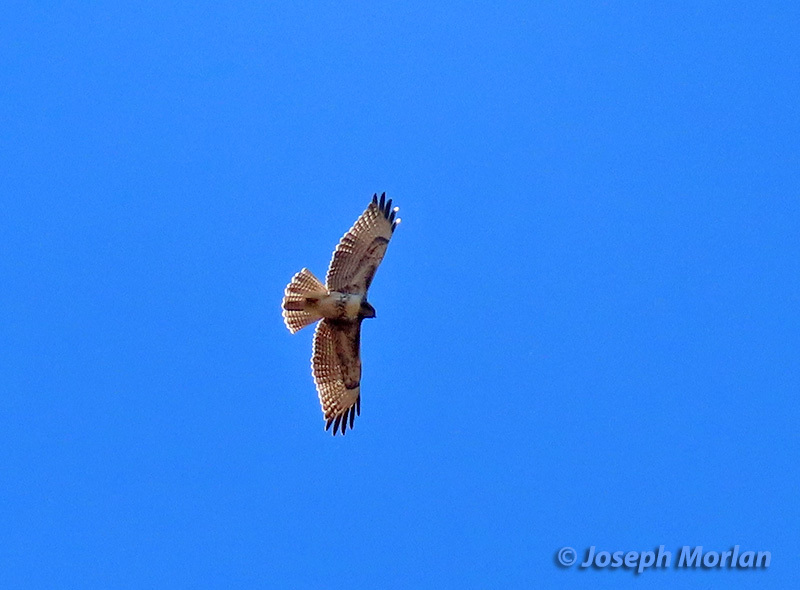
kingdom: Animalia
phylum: Chordata
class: Aves
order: Accipitriformes
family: Accipitridae
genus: Buteo
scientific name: Buteo jamaicensis
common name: Red-tailed hawk
